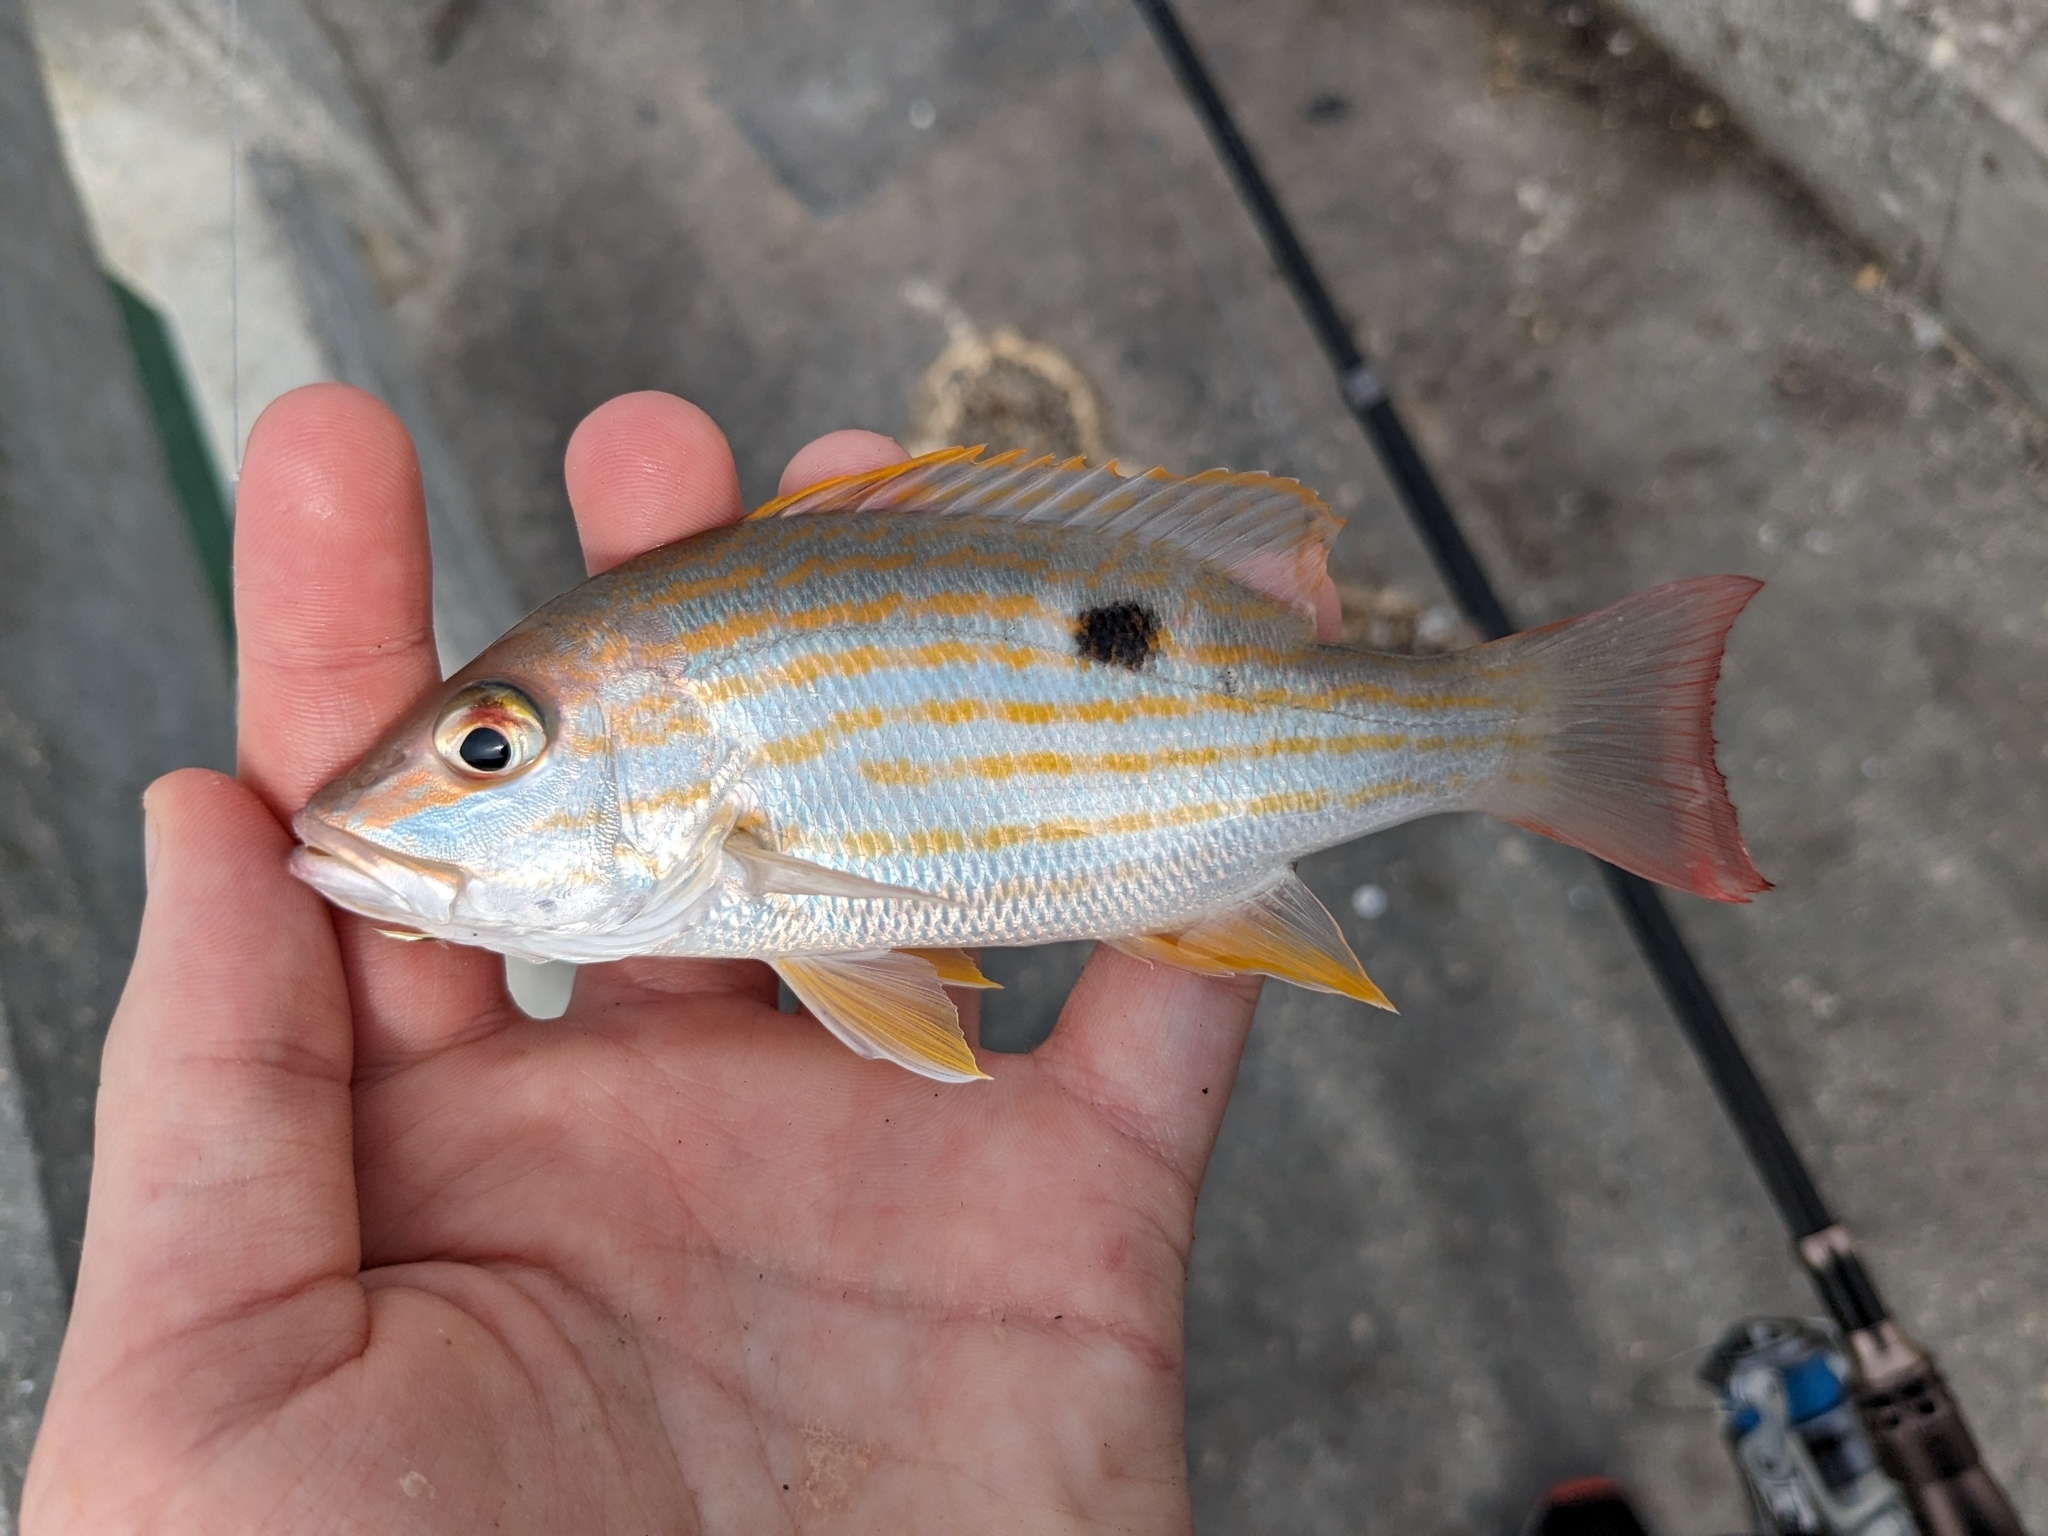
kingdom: Animalia
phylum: Chordata
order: Perciformes
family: Lutjanidae
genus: Lutjanus
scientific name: Lutjanus synagris
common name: Lane snapper
